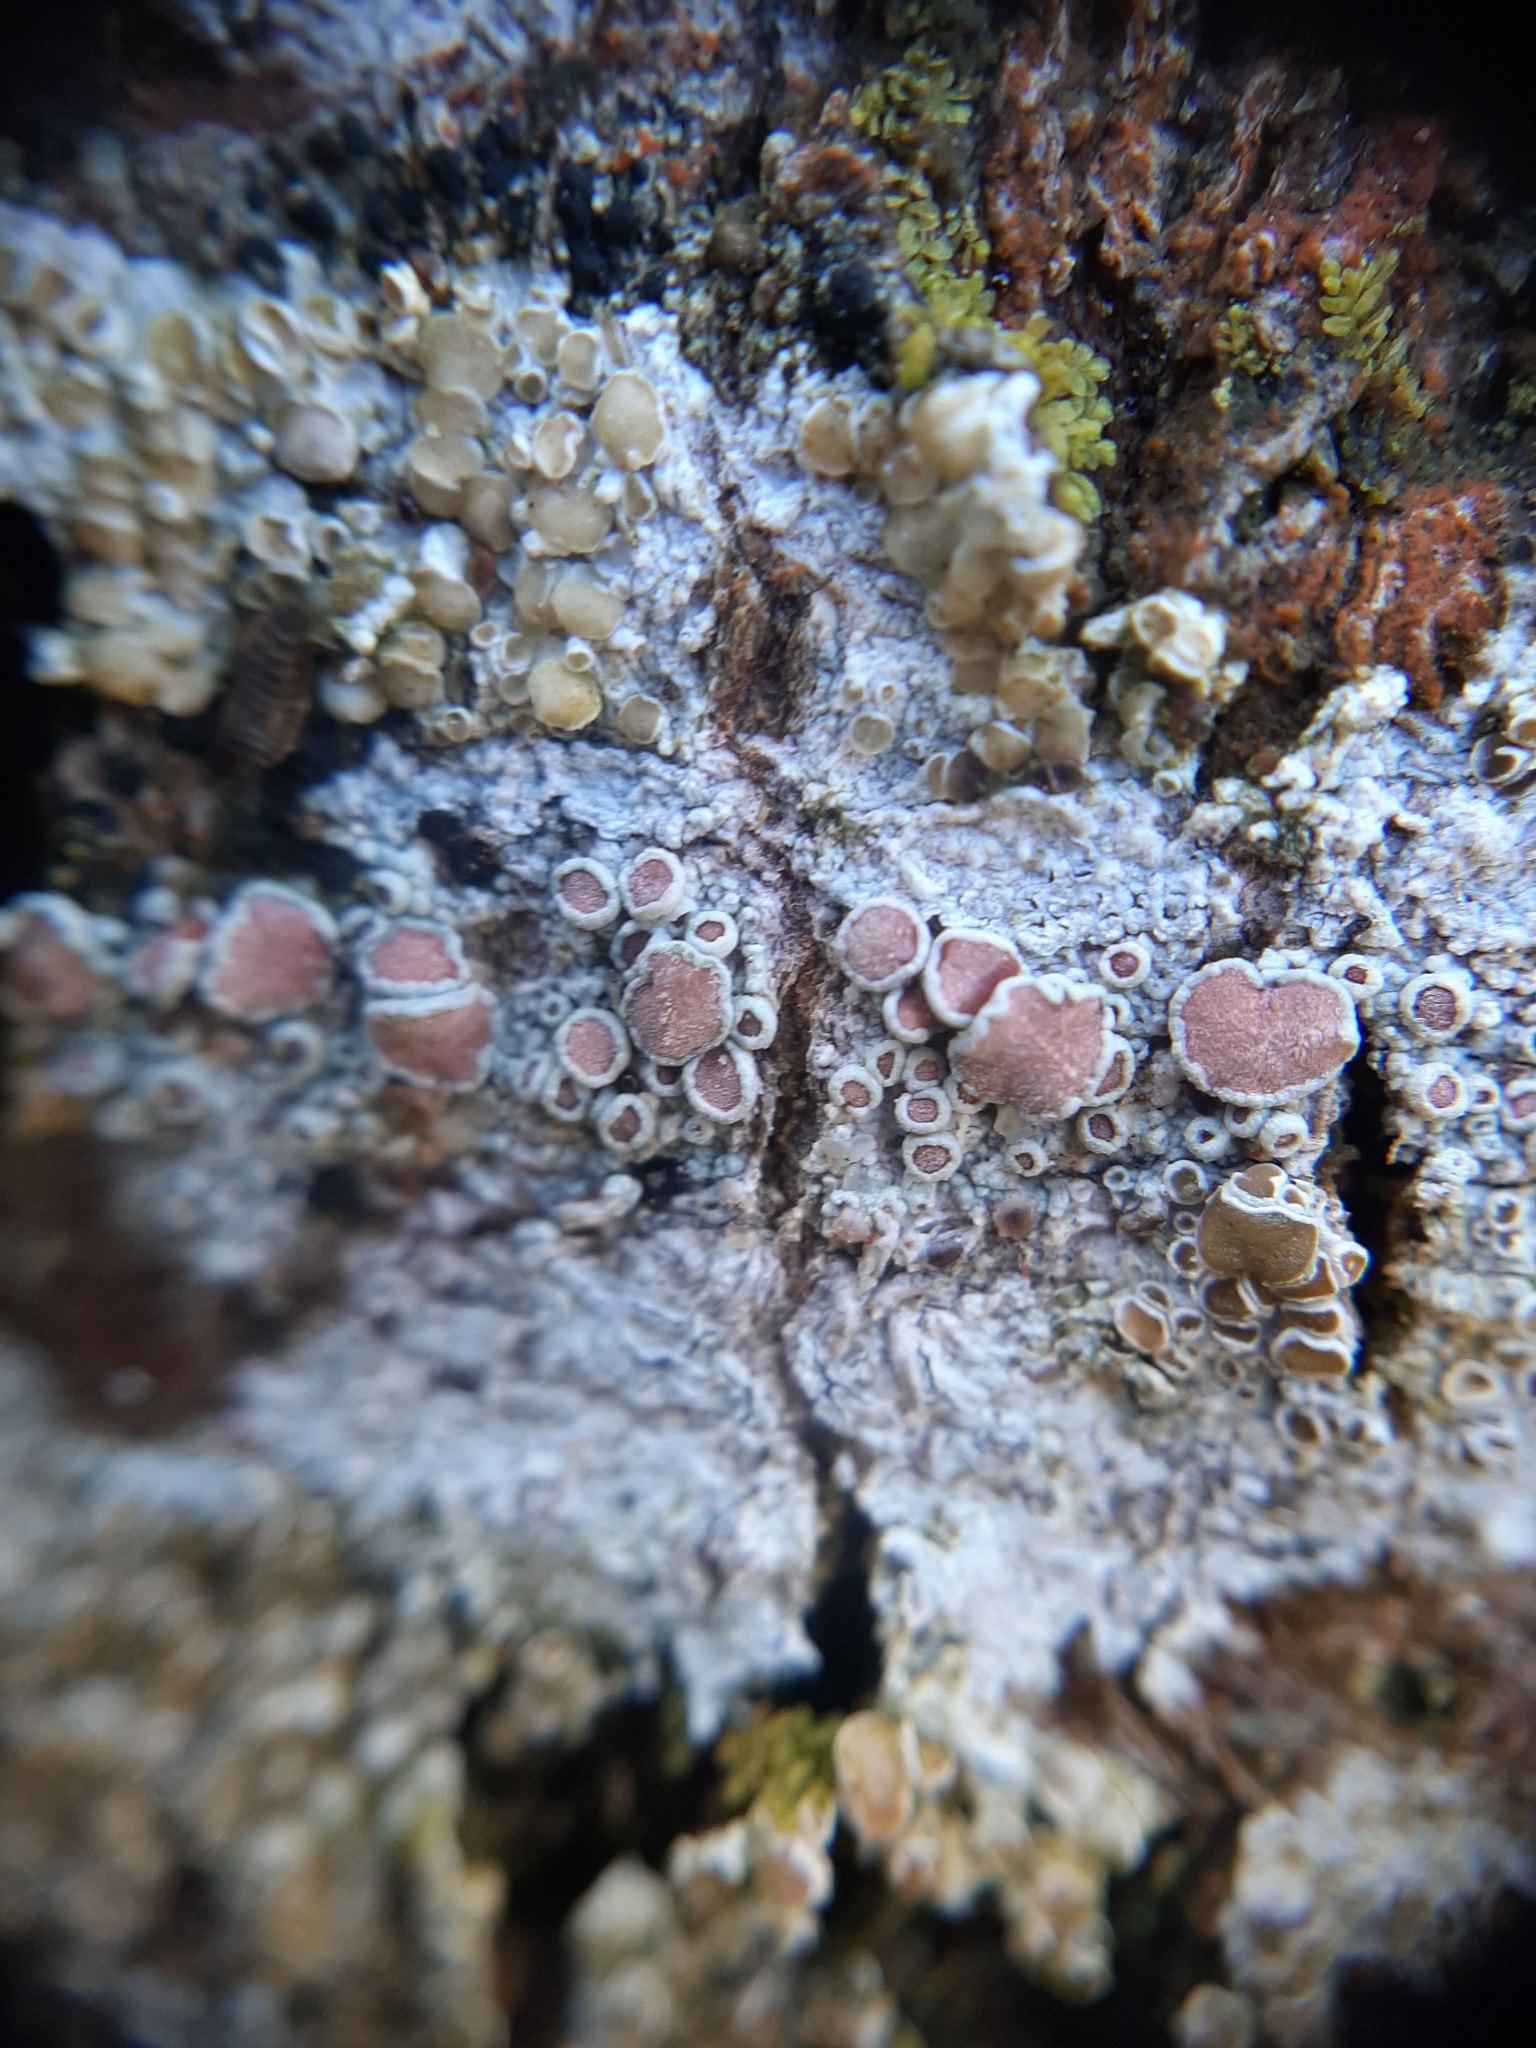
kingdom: Fungi
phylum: Ascomycota
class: Lecanoromycetes
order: Lecanorales
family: Haematommataceae
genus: Haematomma
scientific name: Haematomma babingtonii
